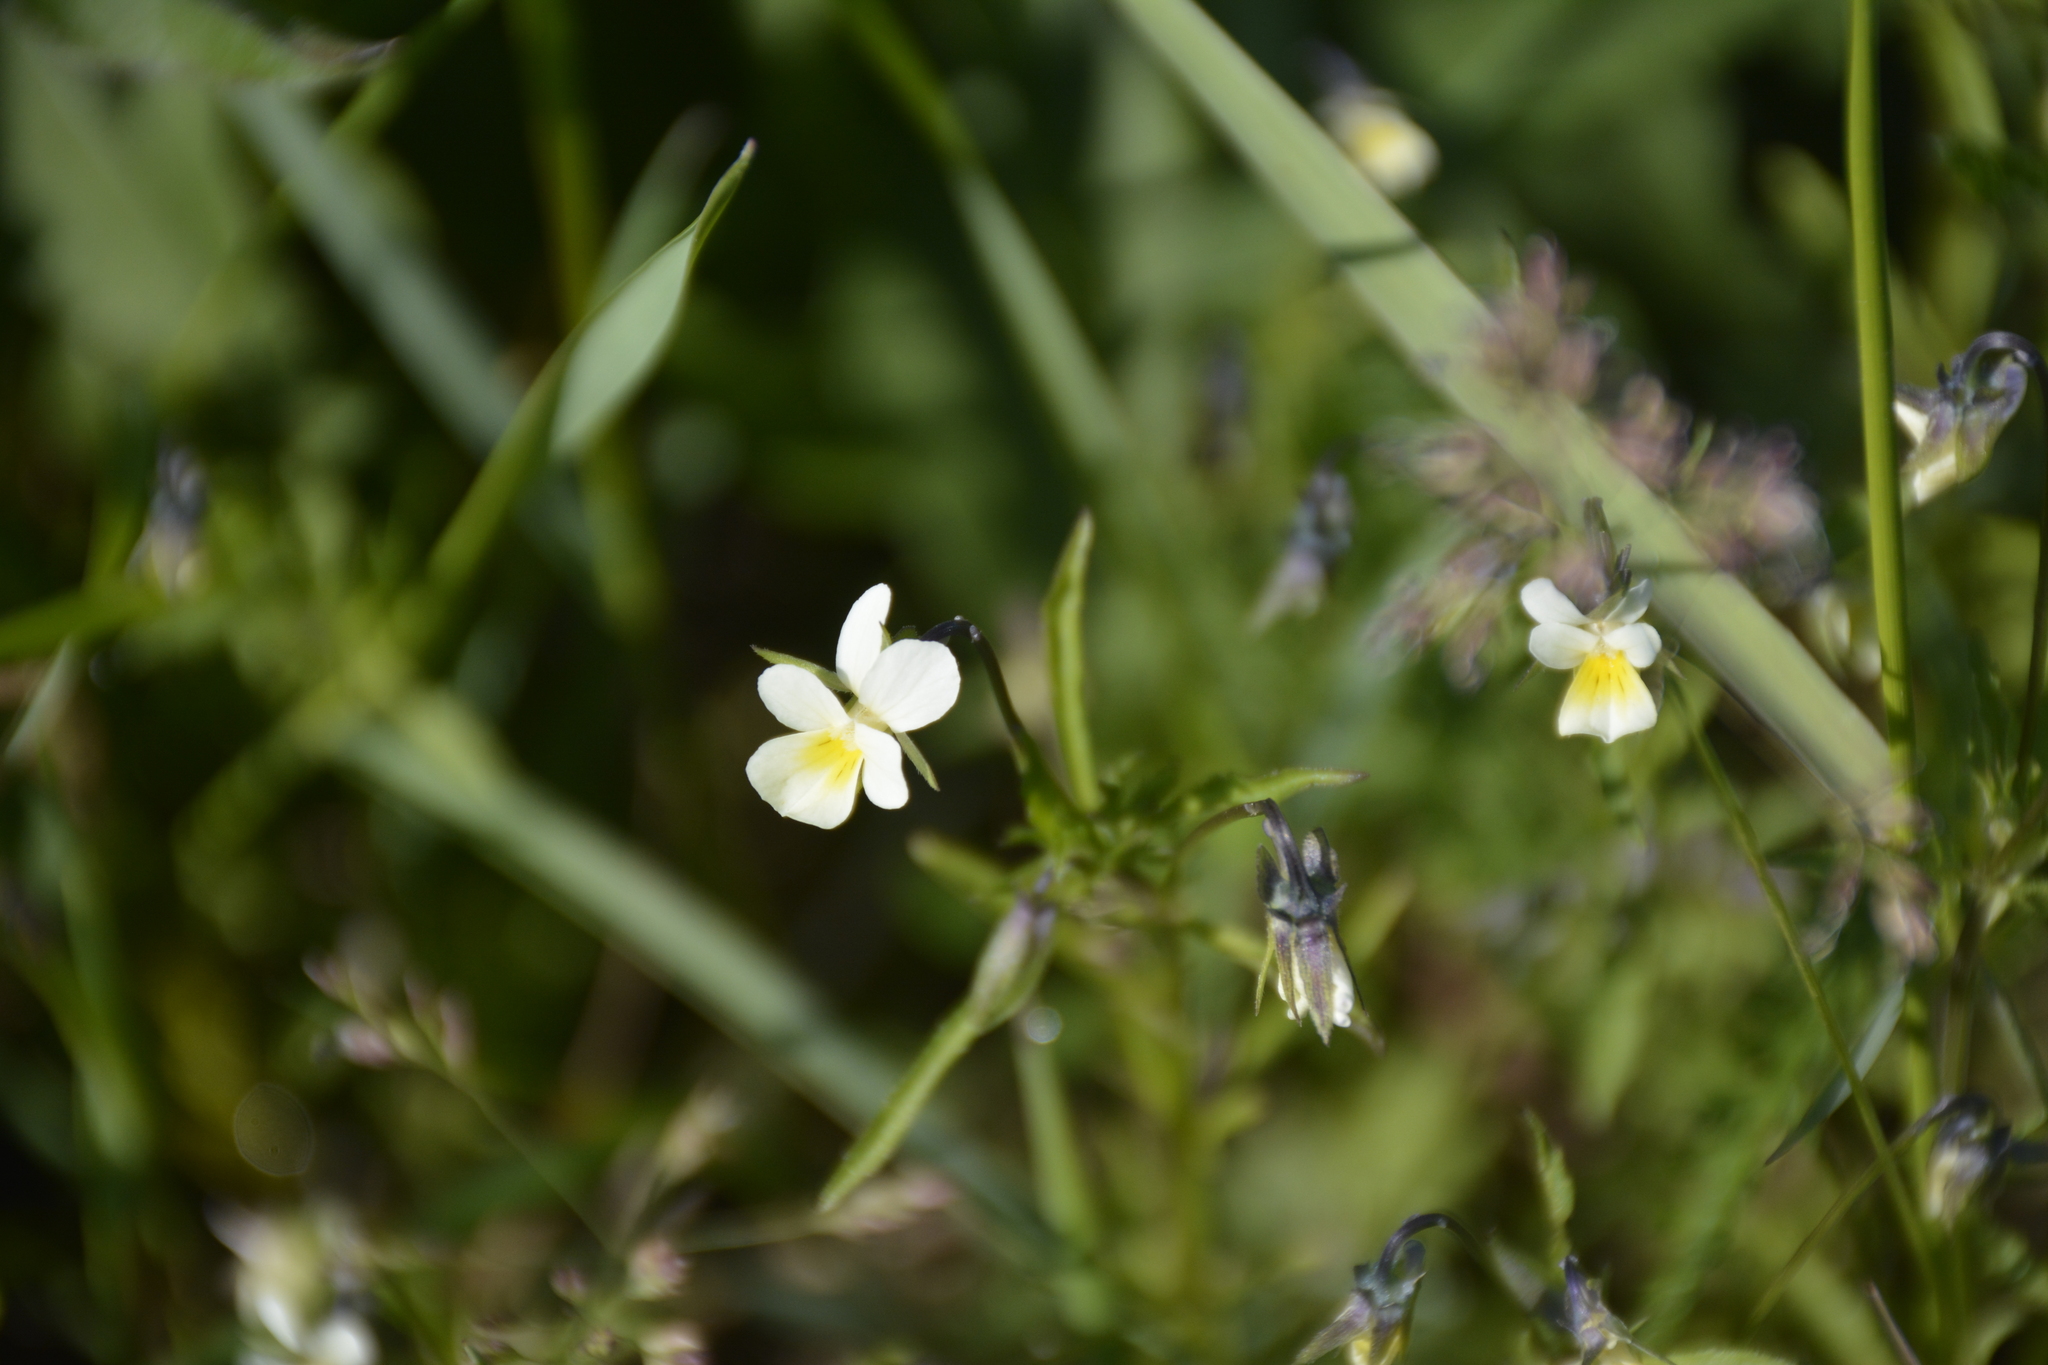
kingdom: Plantae
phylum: Tracheophyta
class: Magnoliopsida
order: Malpighiales
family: Violaceae
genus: Viola
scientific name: Viola arvensis
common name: Field pansy
